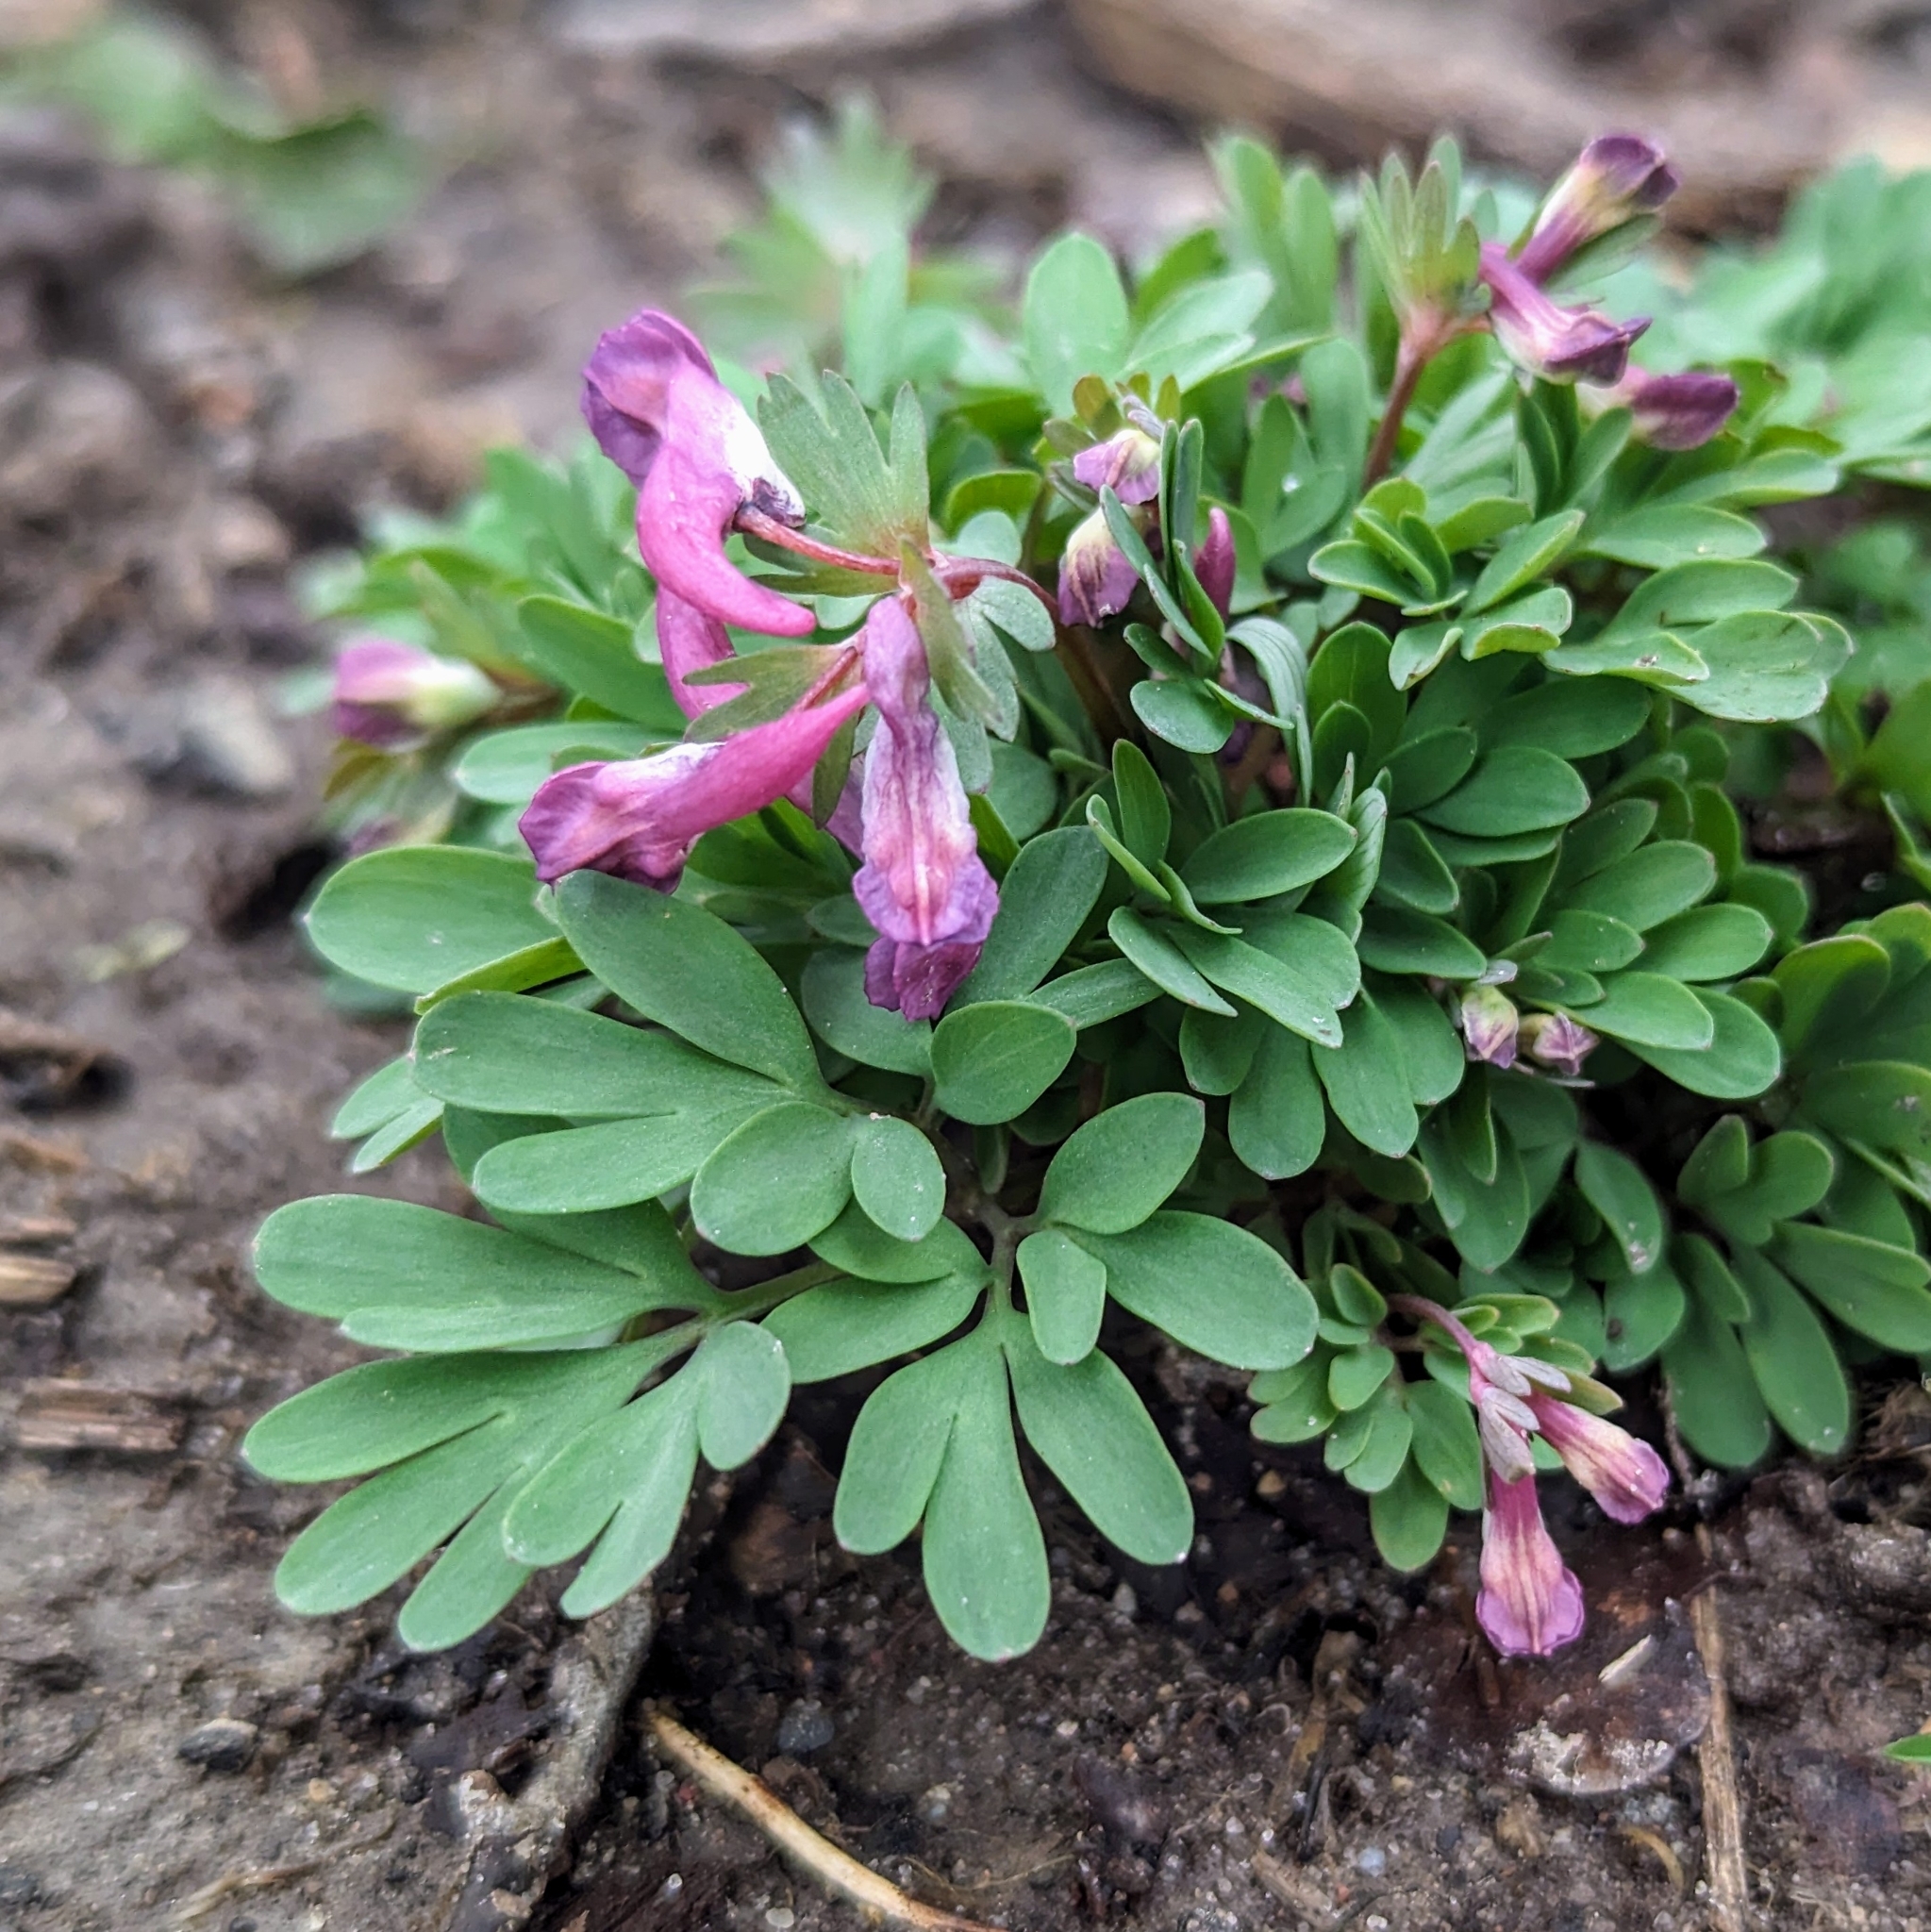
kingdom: Plantae
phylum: Tracheophyta
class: Magnoliopsida
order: Ranunculales
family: Papaveraceae
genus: Corydalis
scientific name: Corydalis solida
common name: Bird-in-a-bush
